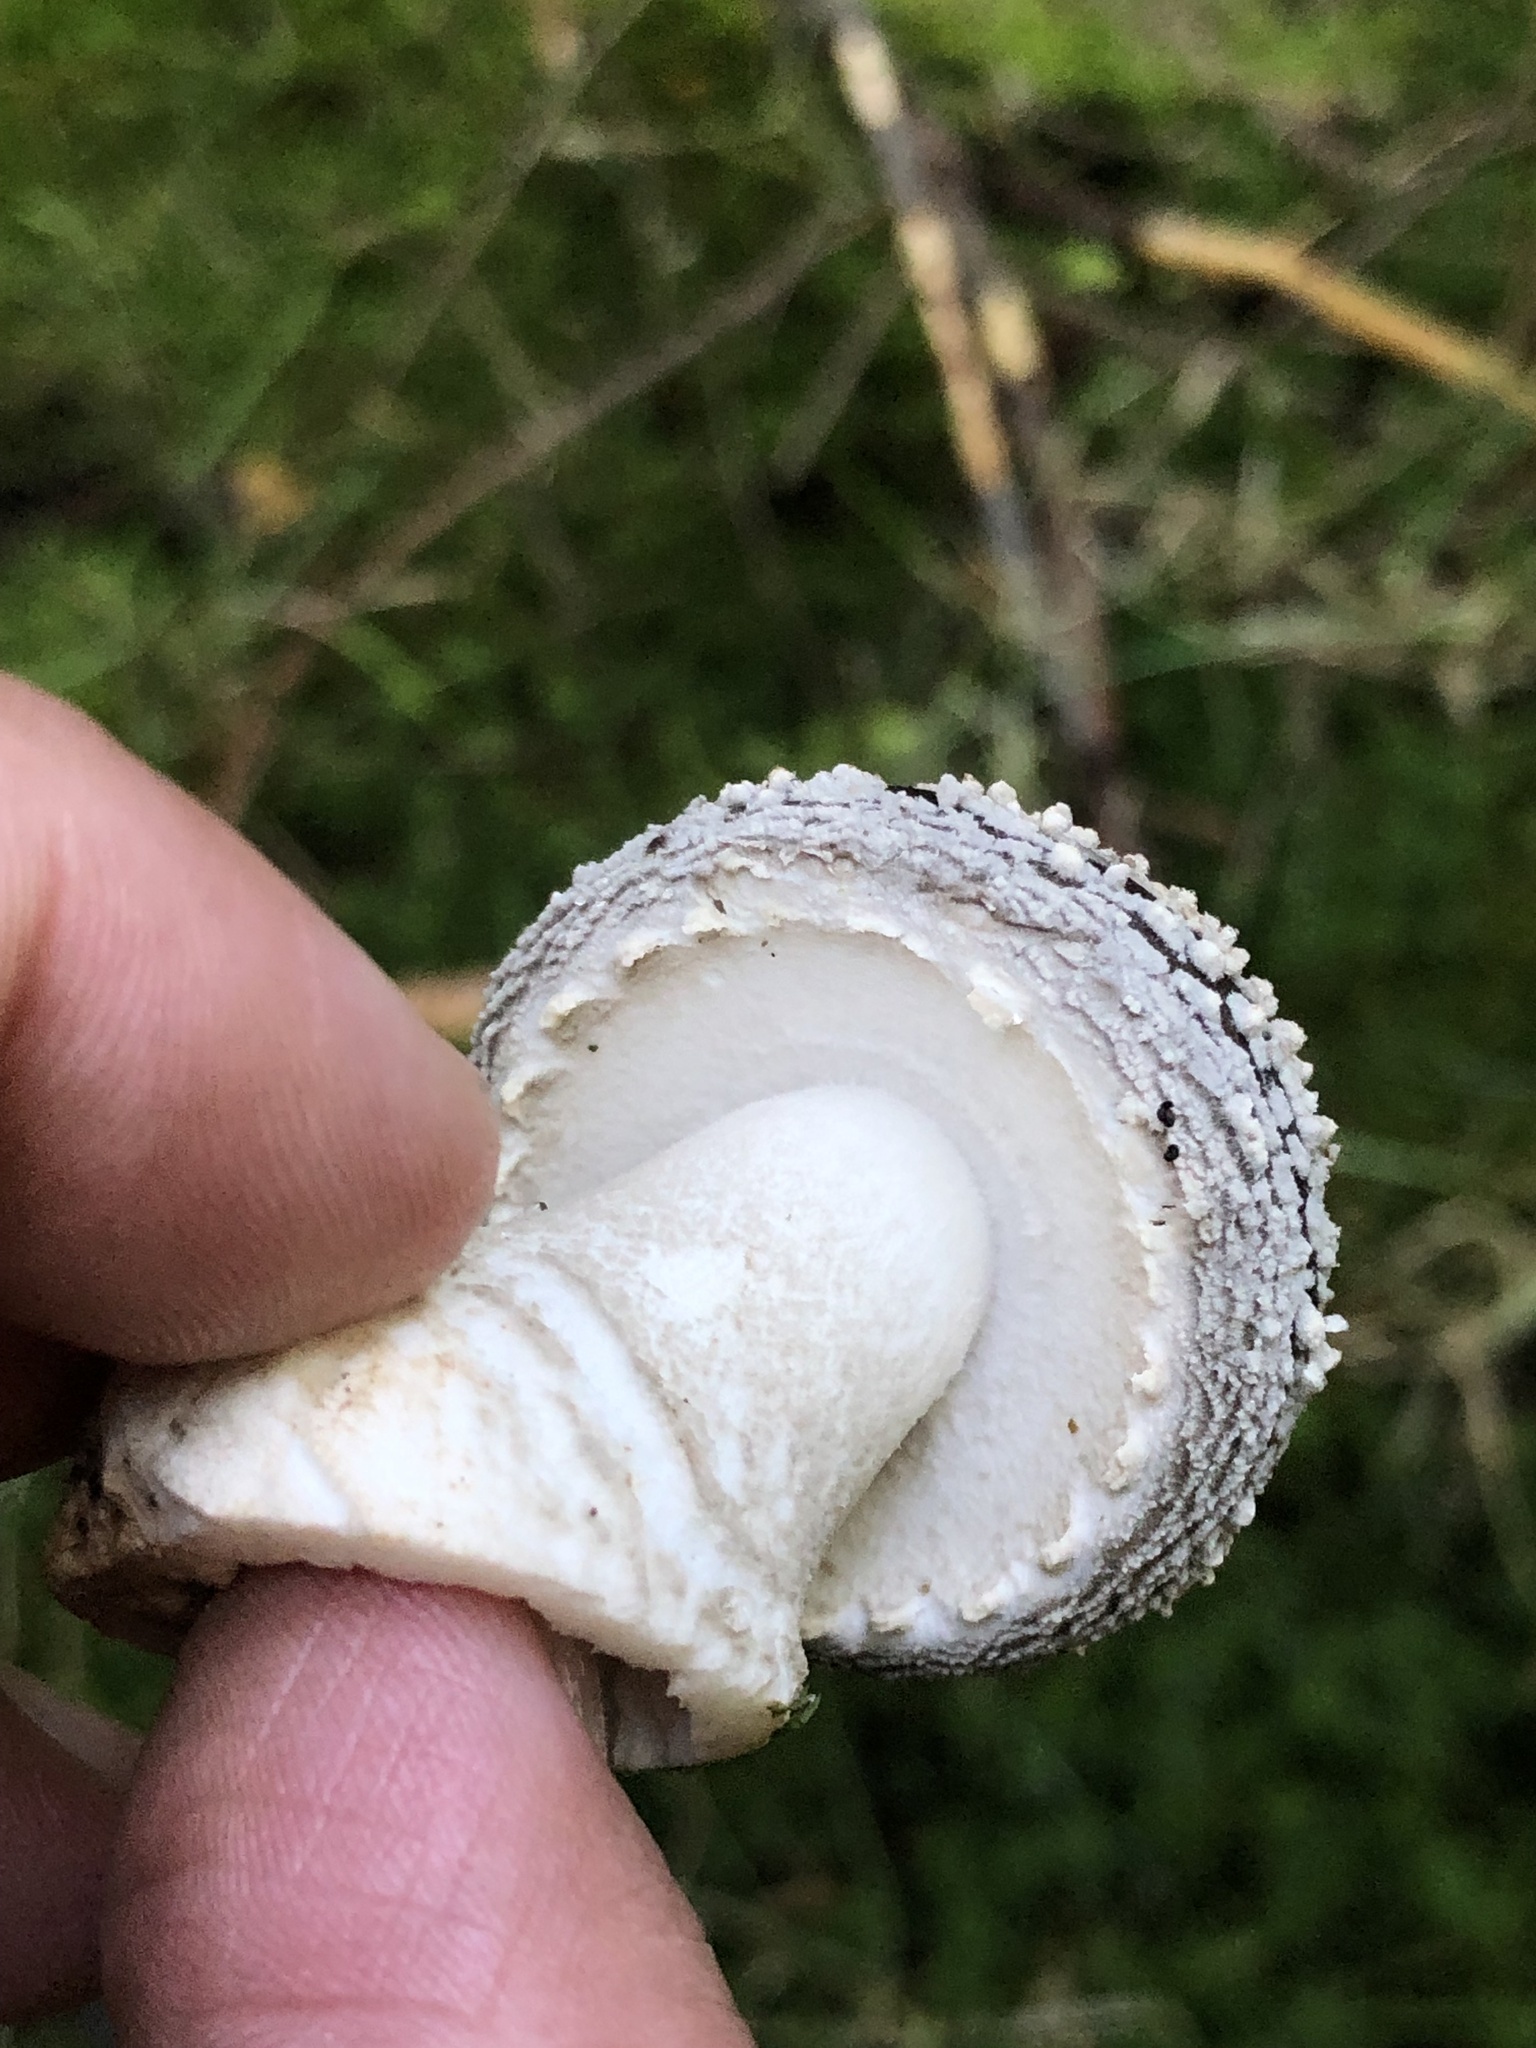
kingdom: Fungi
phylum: Basidiomycota
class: Agaricomycetes
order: Agaricales
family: Amanitaceae
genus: Amanita
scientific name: Amanita pantherina
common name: Panthercap
